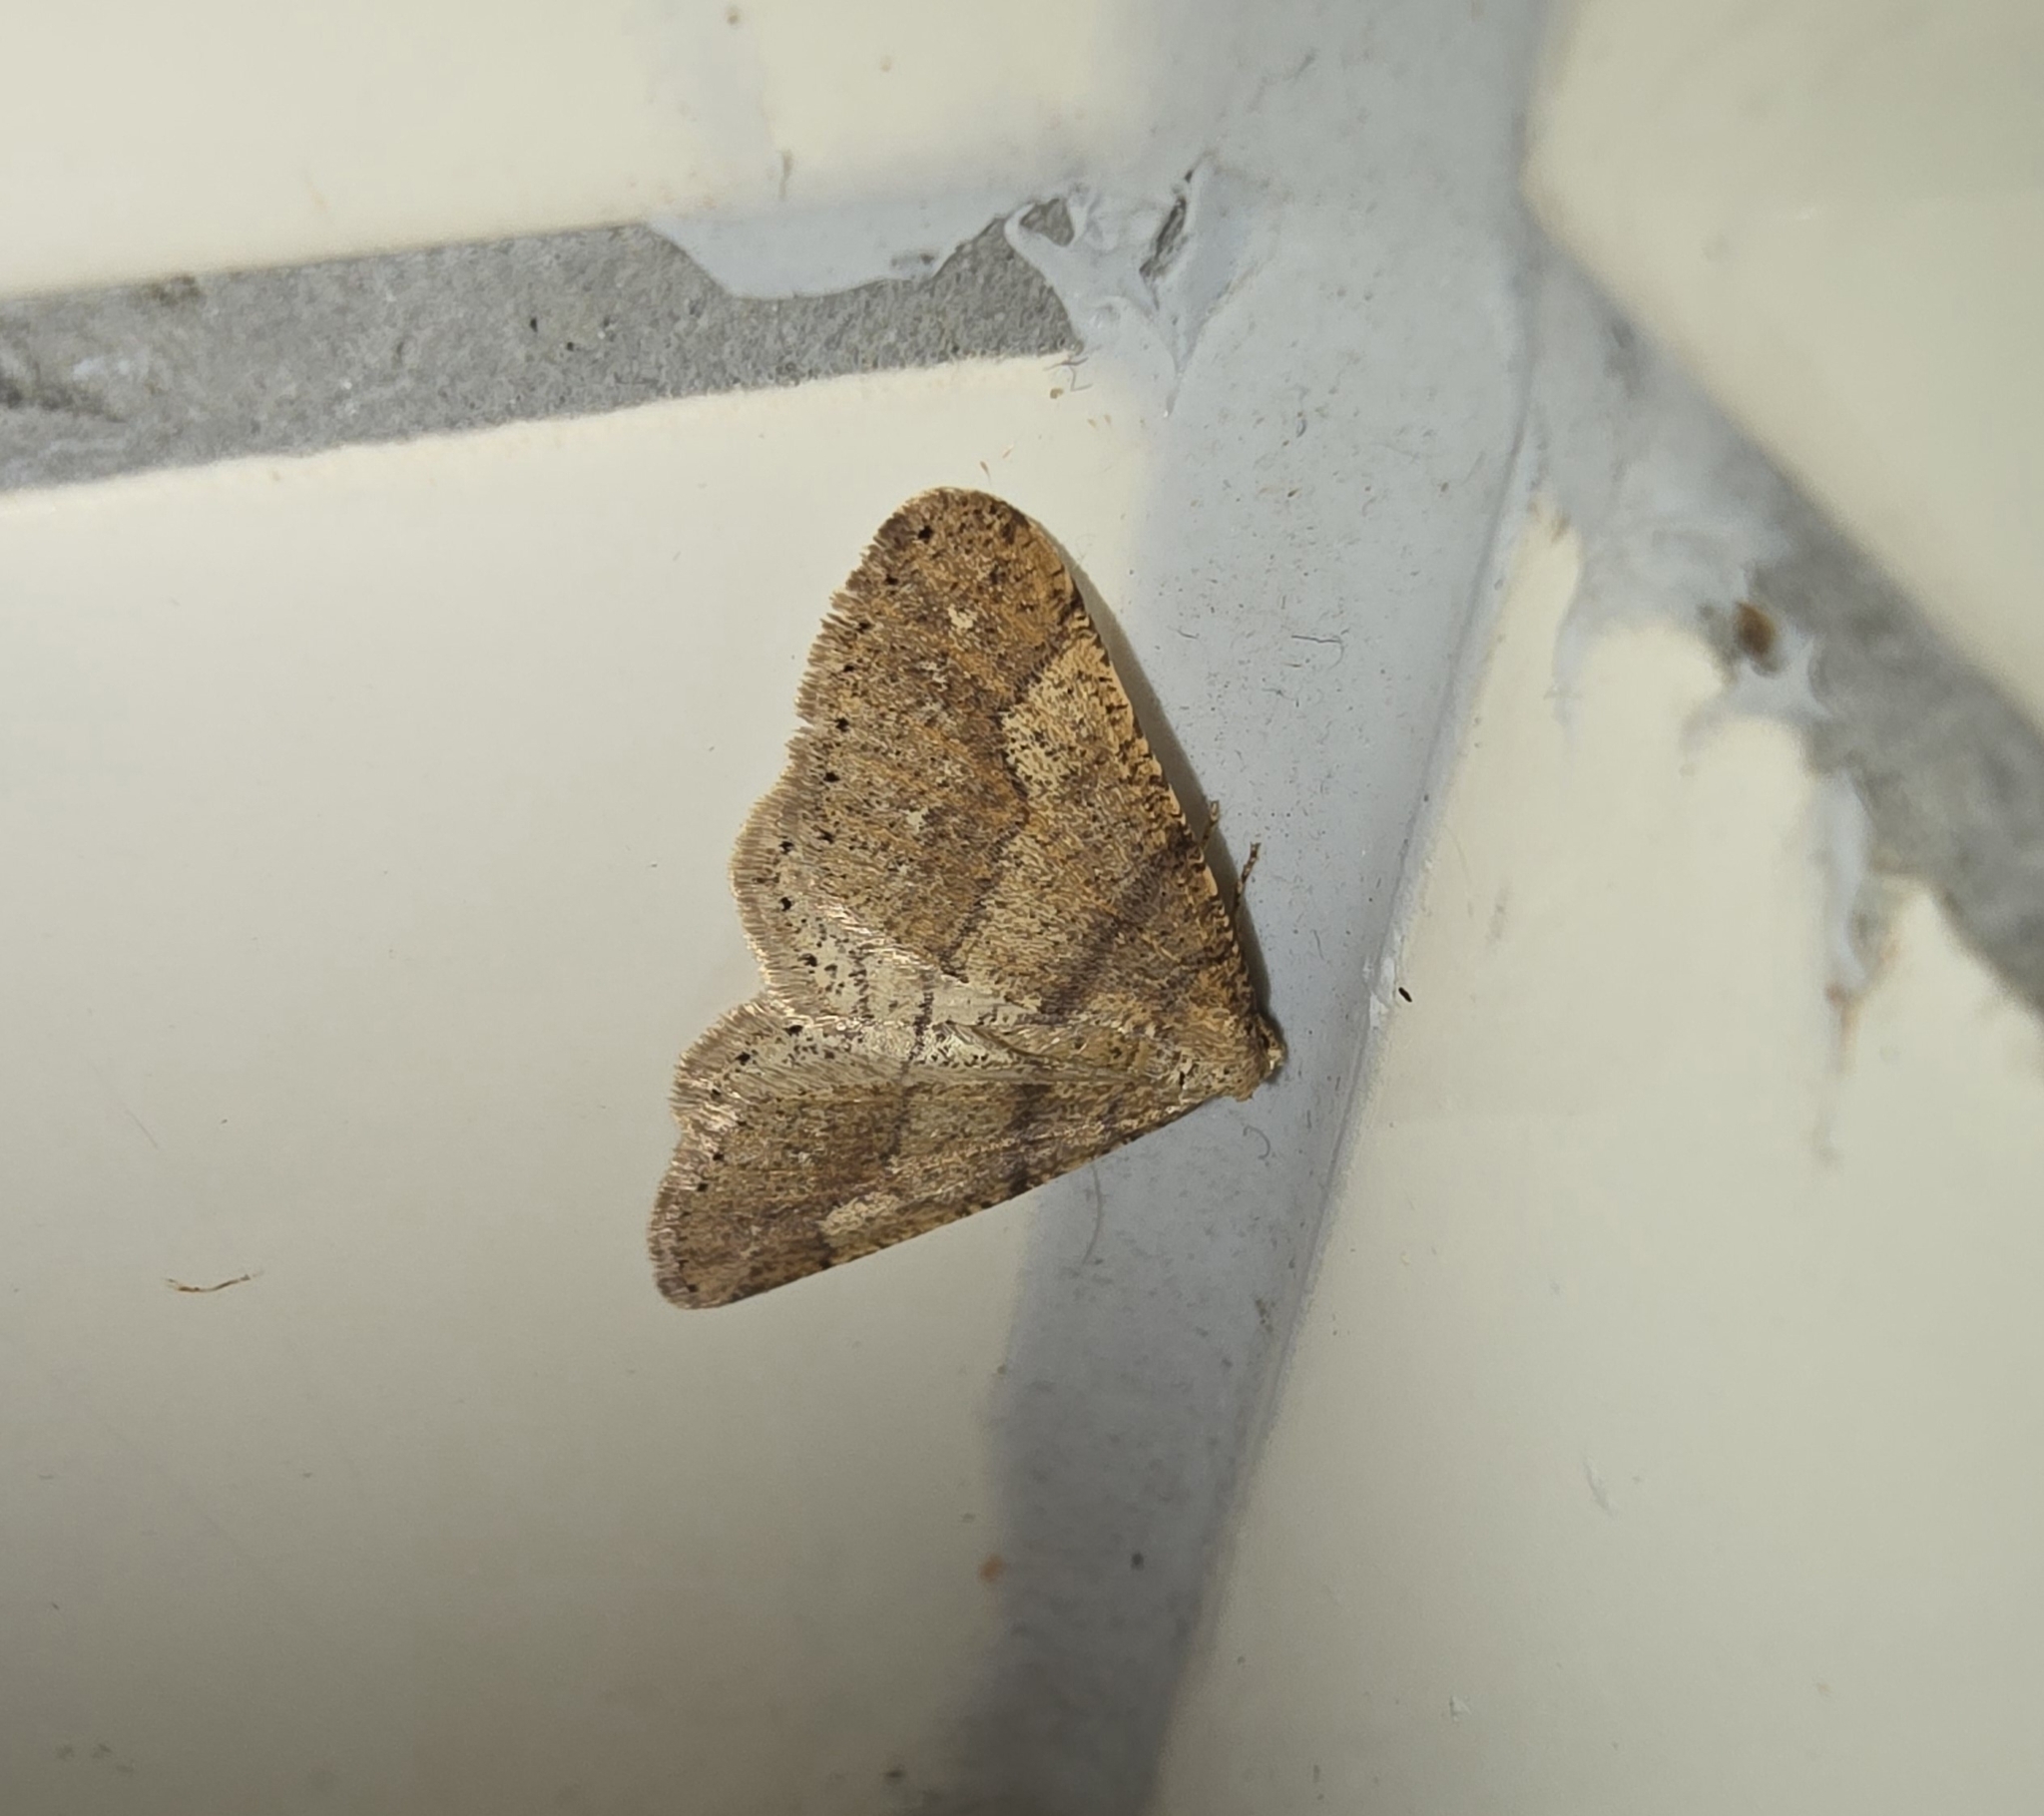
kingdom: Animalia
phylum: Arthropoda
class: Insecta
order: Lepidoptera
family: Geometridae
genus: Agriopis
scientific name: Agriopis marginaria
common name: Dotted border
